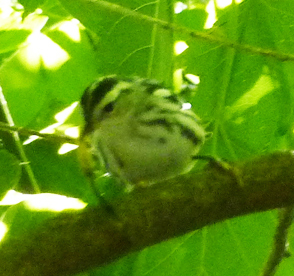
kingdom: Animalia
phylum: Chordata
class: Aves
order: Passeriformes
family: Parulidae
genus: Mniotilta
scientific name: Mniotilta varia
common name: Black-and-white warbler
